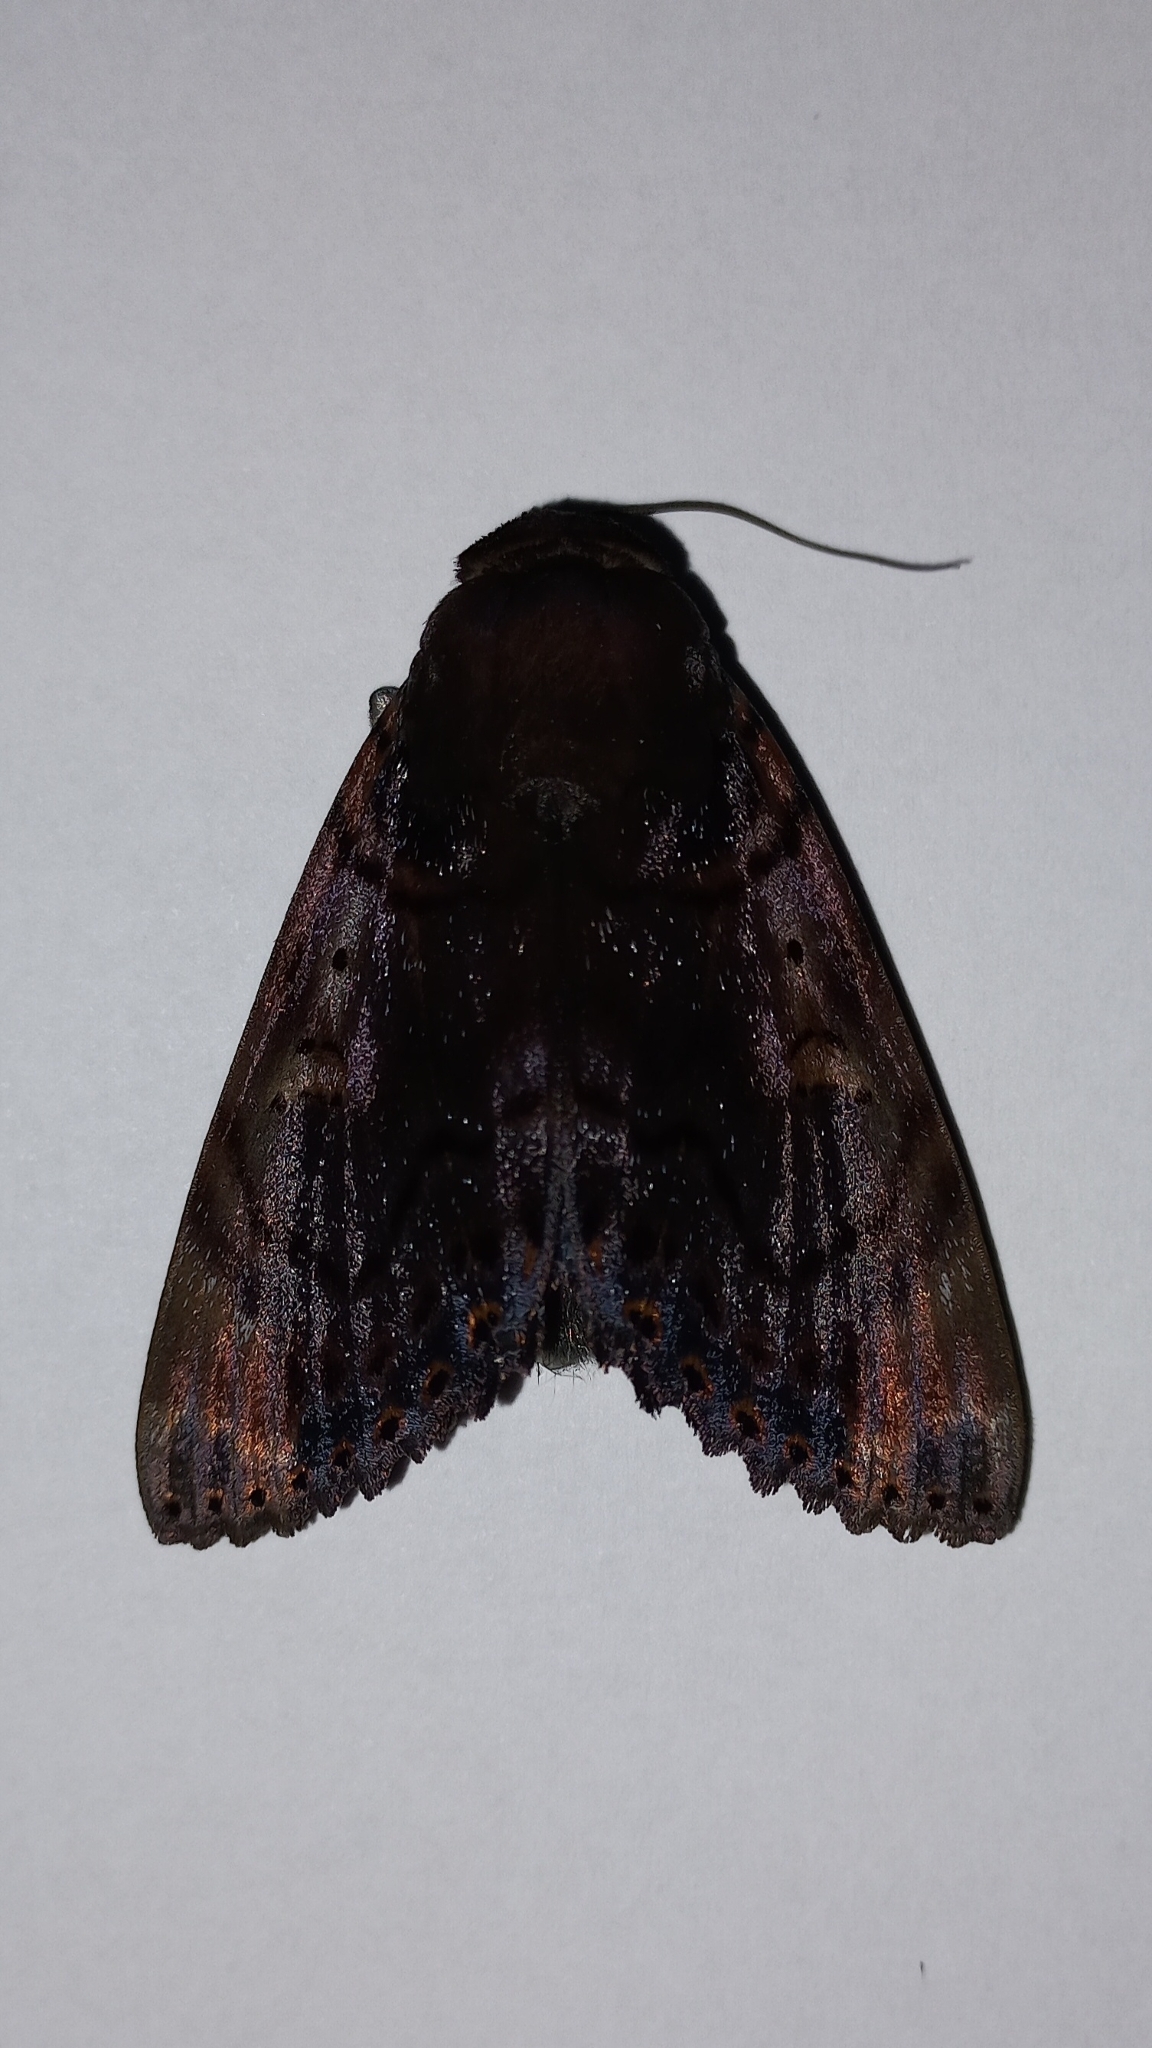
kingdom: Animalia
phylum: Arthropoda
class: Insecta
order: Lepidoptera
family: Erebidae
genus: Arcte
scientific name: Arcte modesta
